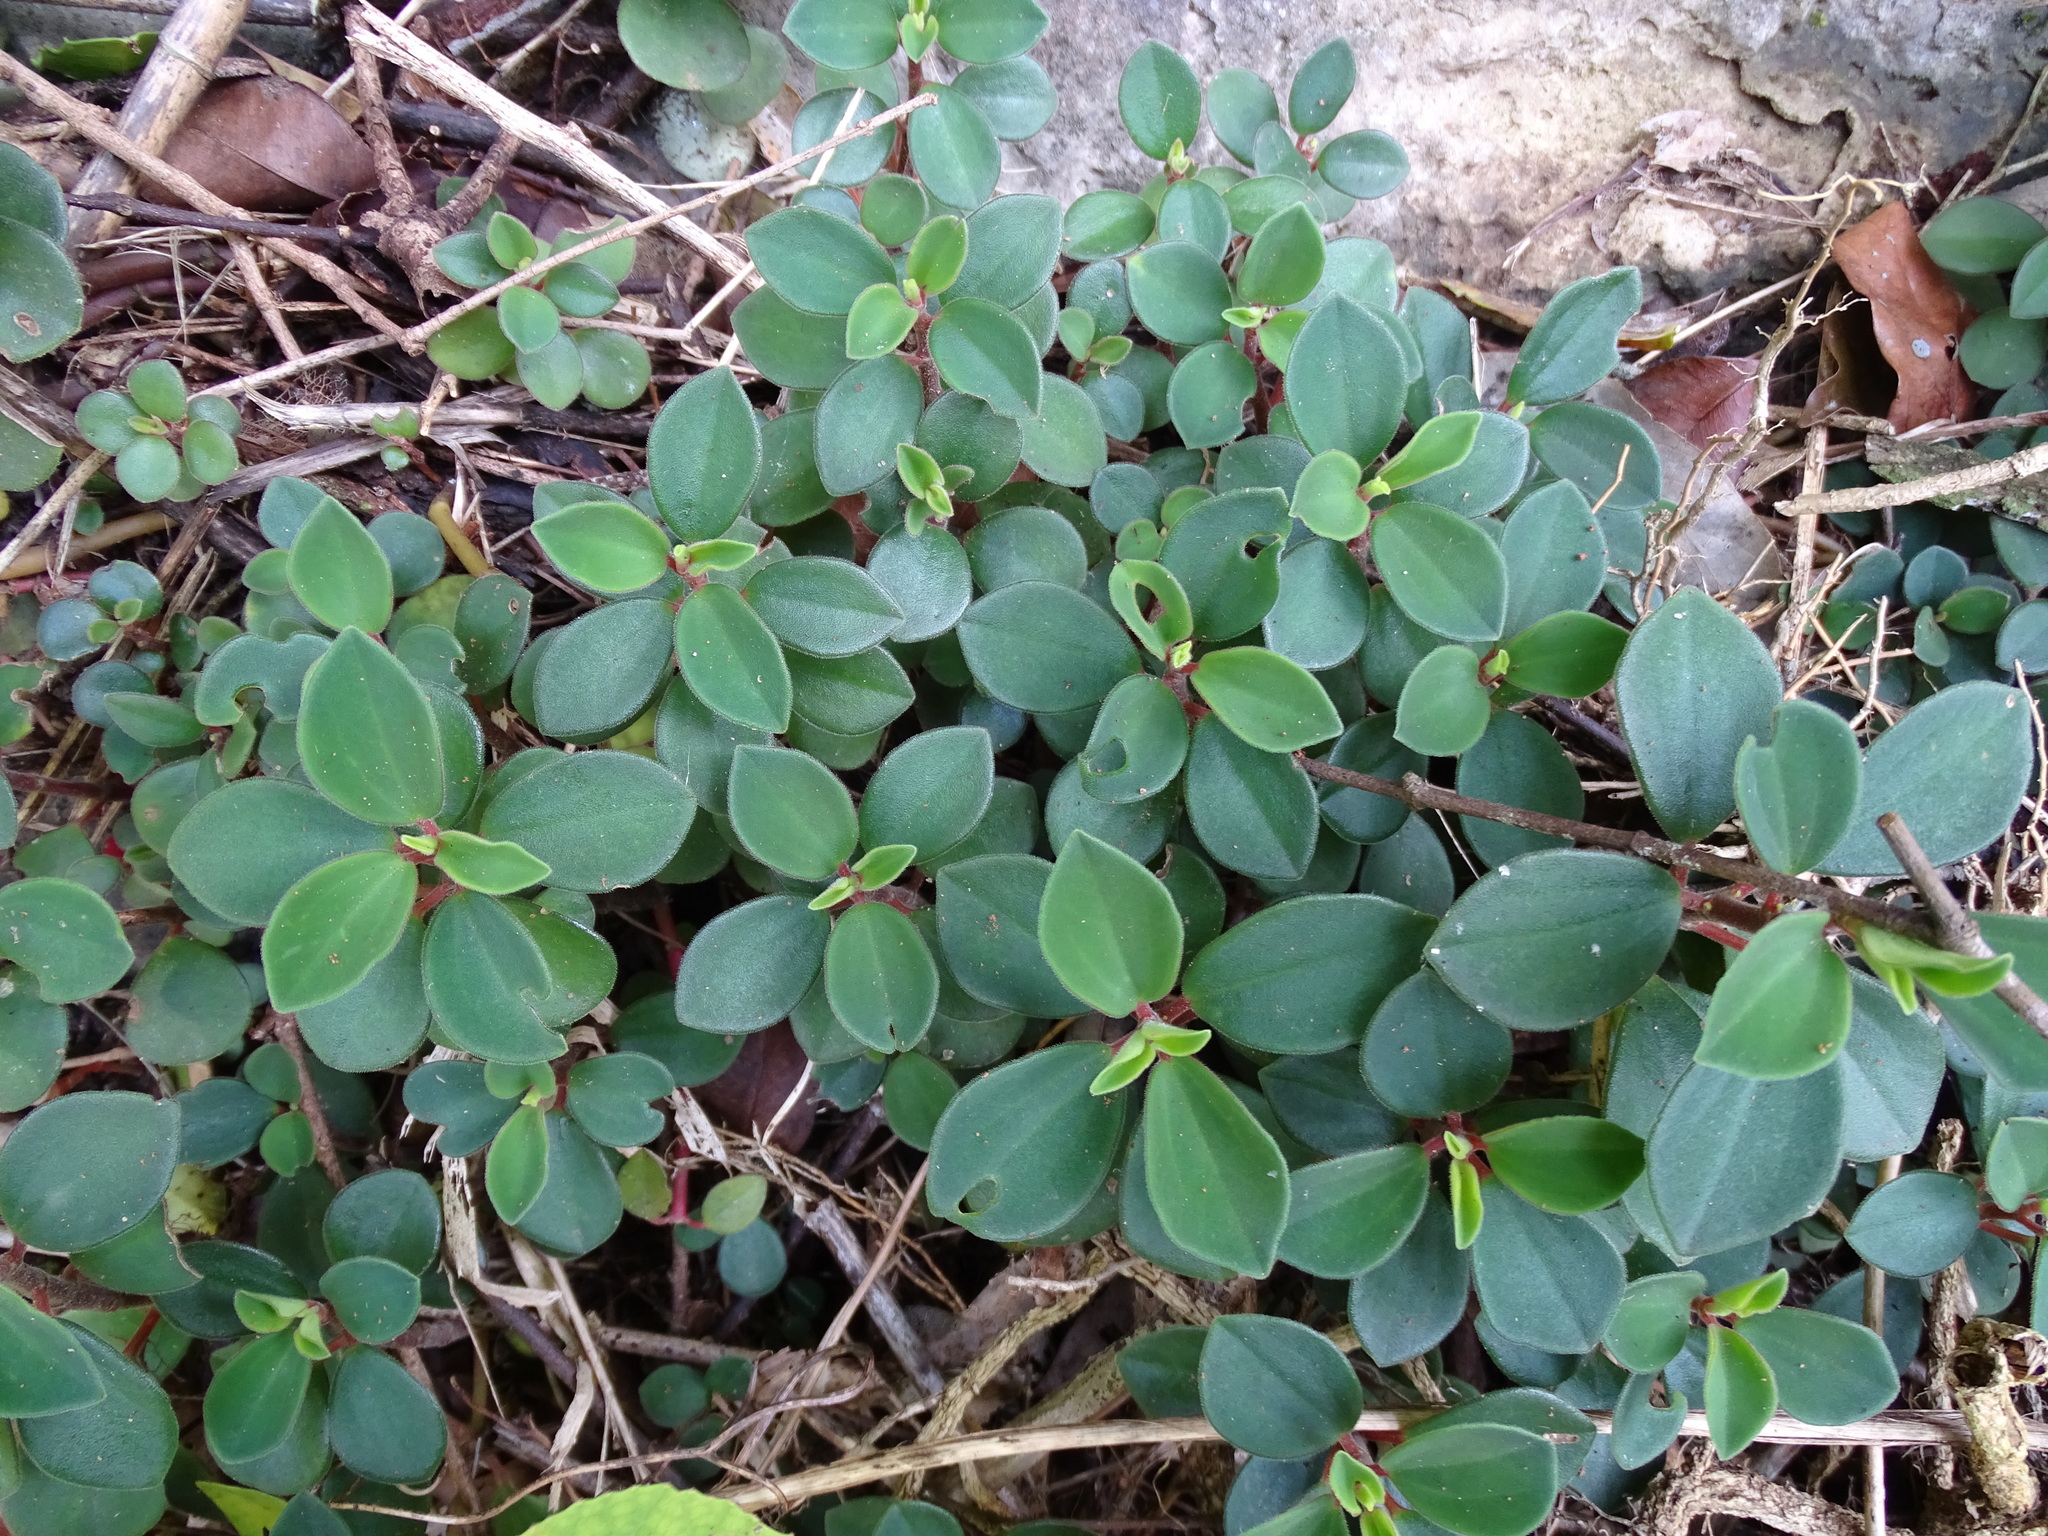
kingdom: Plantae
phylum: Tracheophyta
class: Magnoliopsida
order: Piperales
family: Piperaceae
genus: Peperomia
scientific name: Peperomia leptostachya
